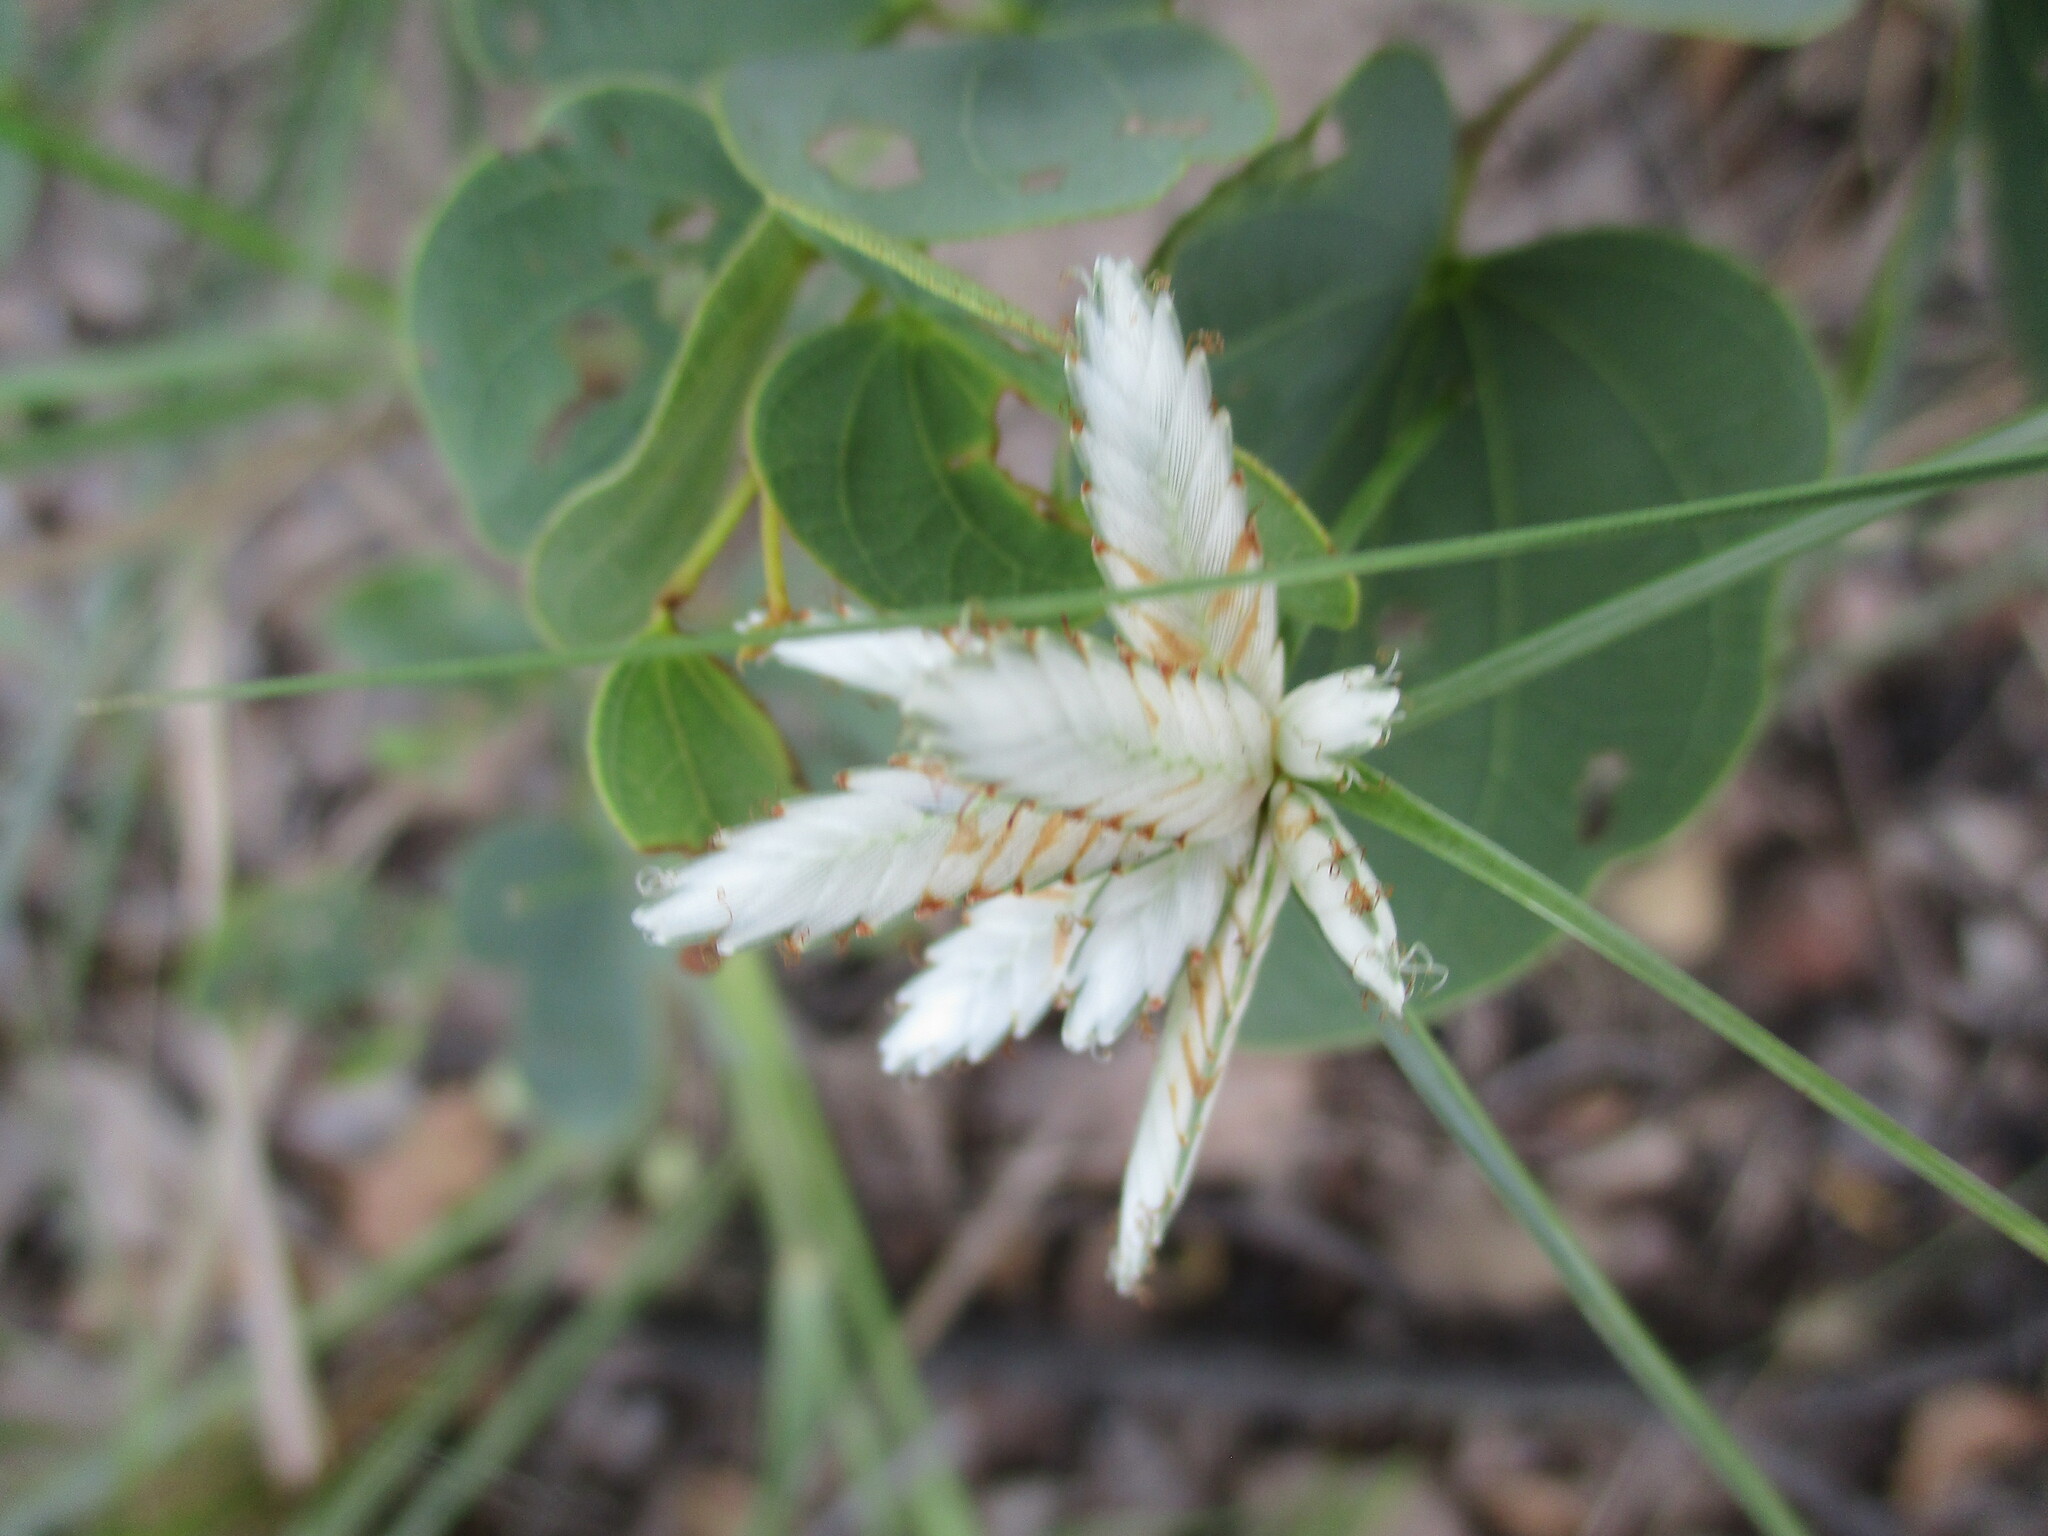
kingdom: Plantae
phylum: Tracheophyta
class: Liliopsida
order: Poales
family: Cyperaceae
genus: Cyperus
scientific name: Cyperus margaritaceus
